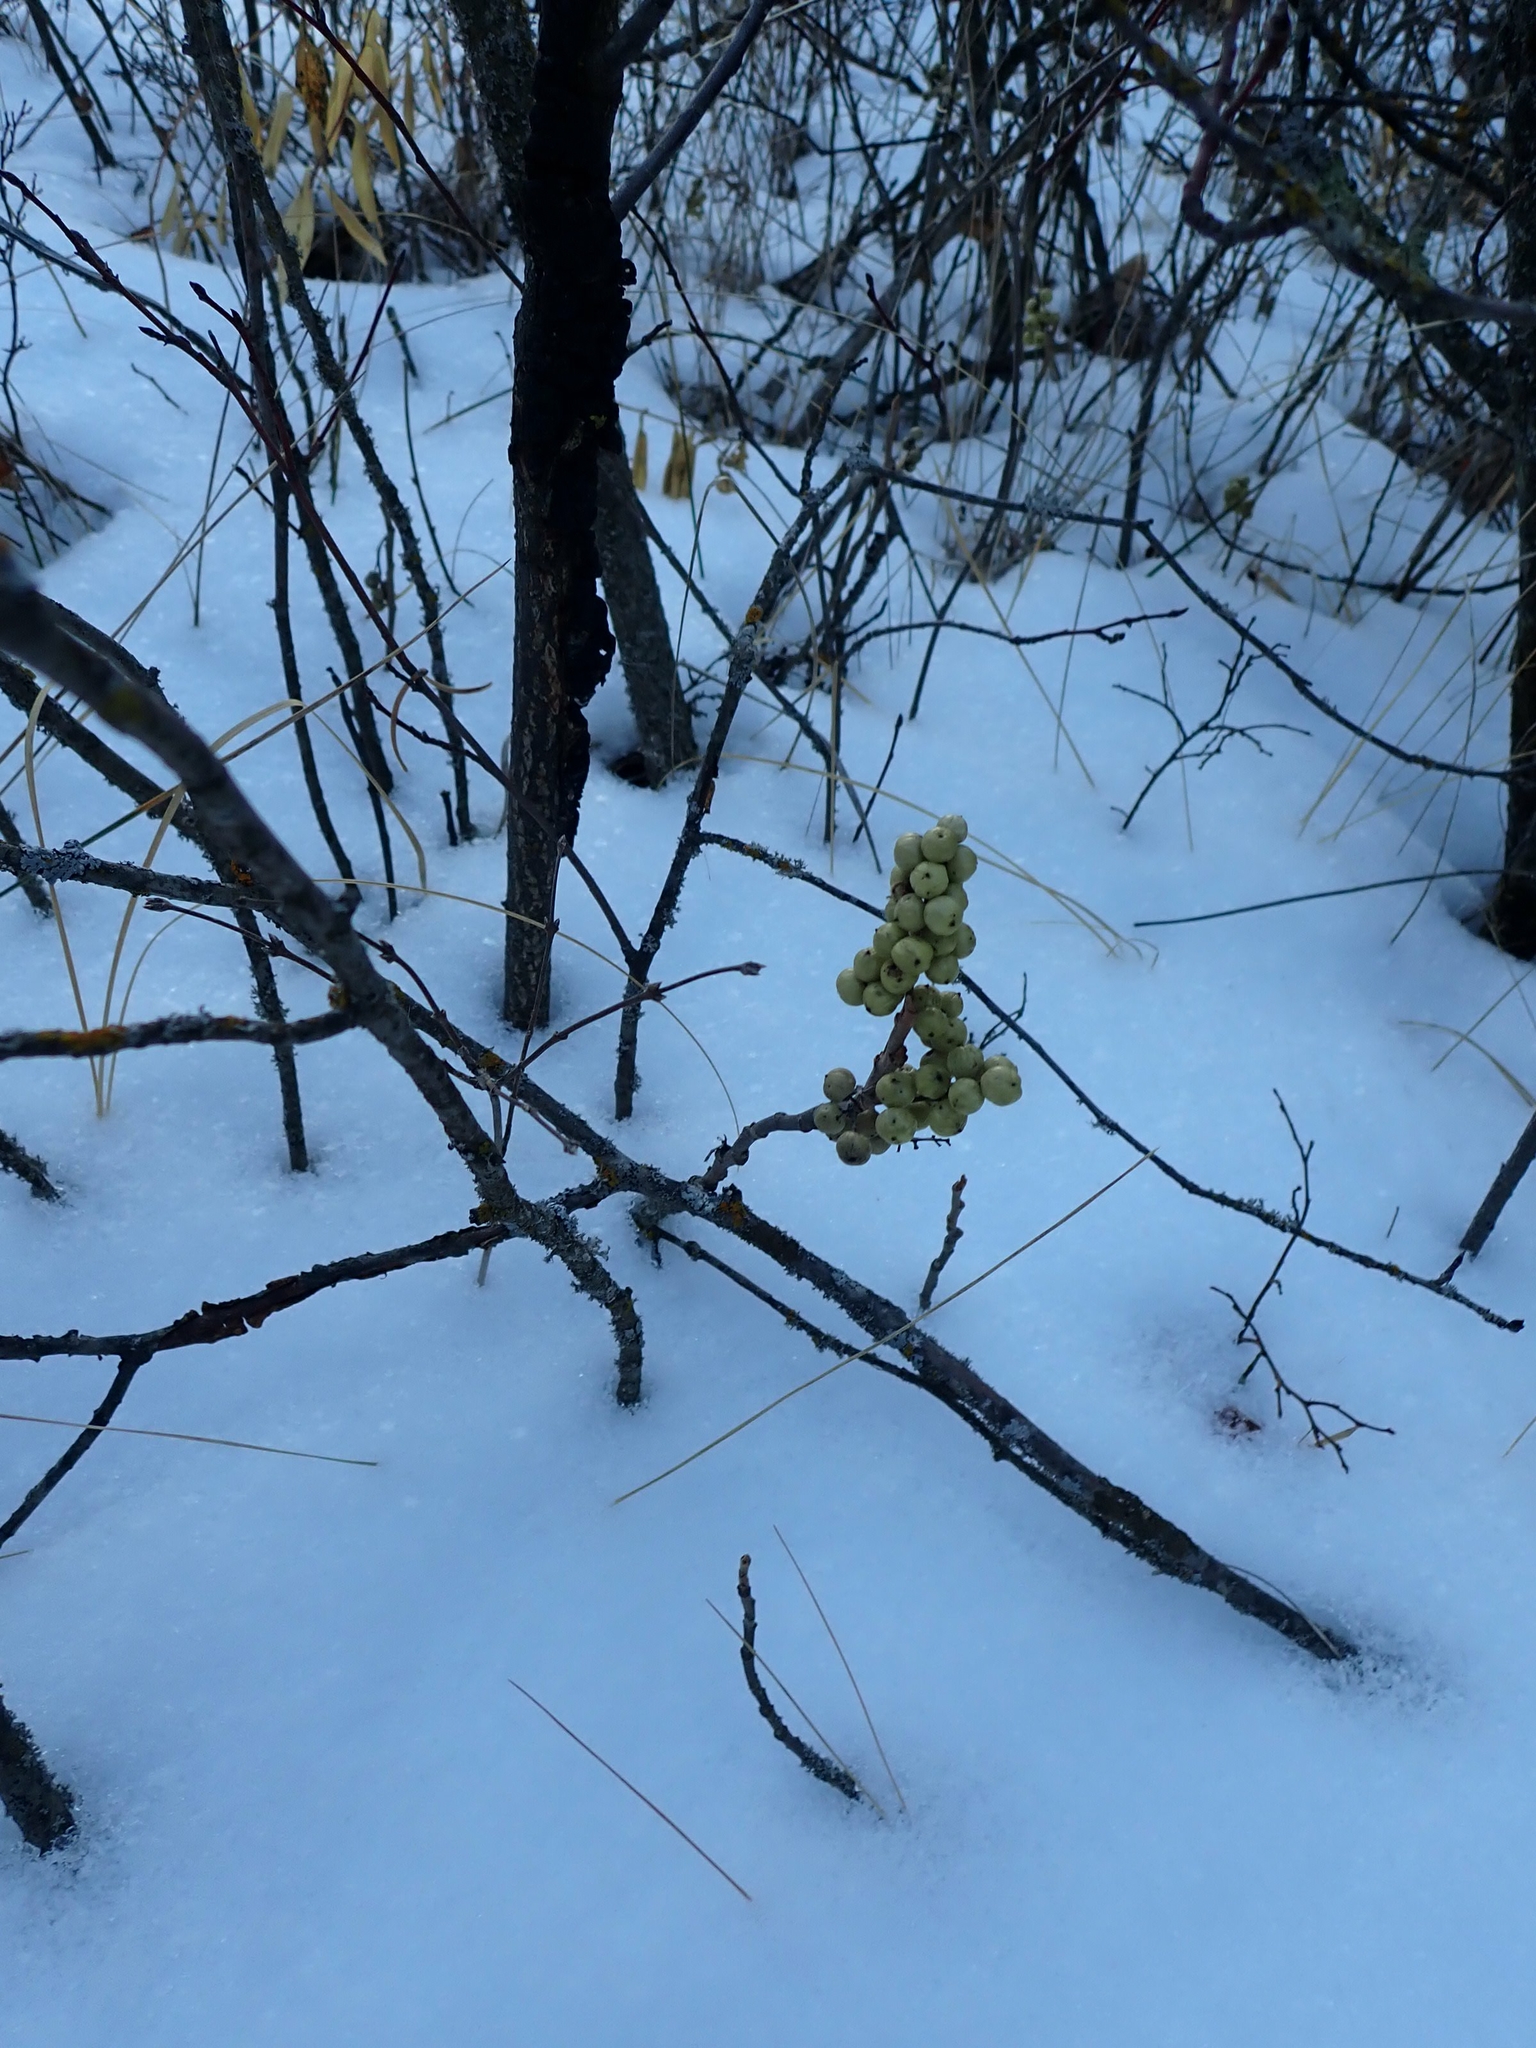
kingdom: Plantae
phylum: Tracheophyta
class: Magnoliopsida
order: Sapindales
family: Anacardiaceae
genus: Toxicodendron
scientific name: Toxicodendron rydbergii
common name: Rydberg's poison-ivy
